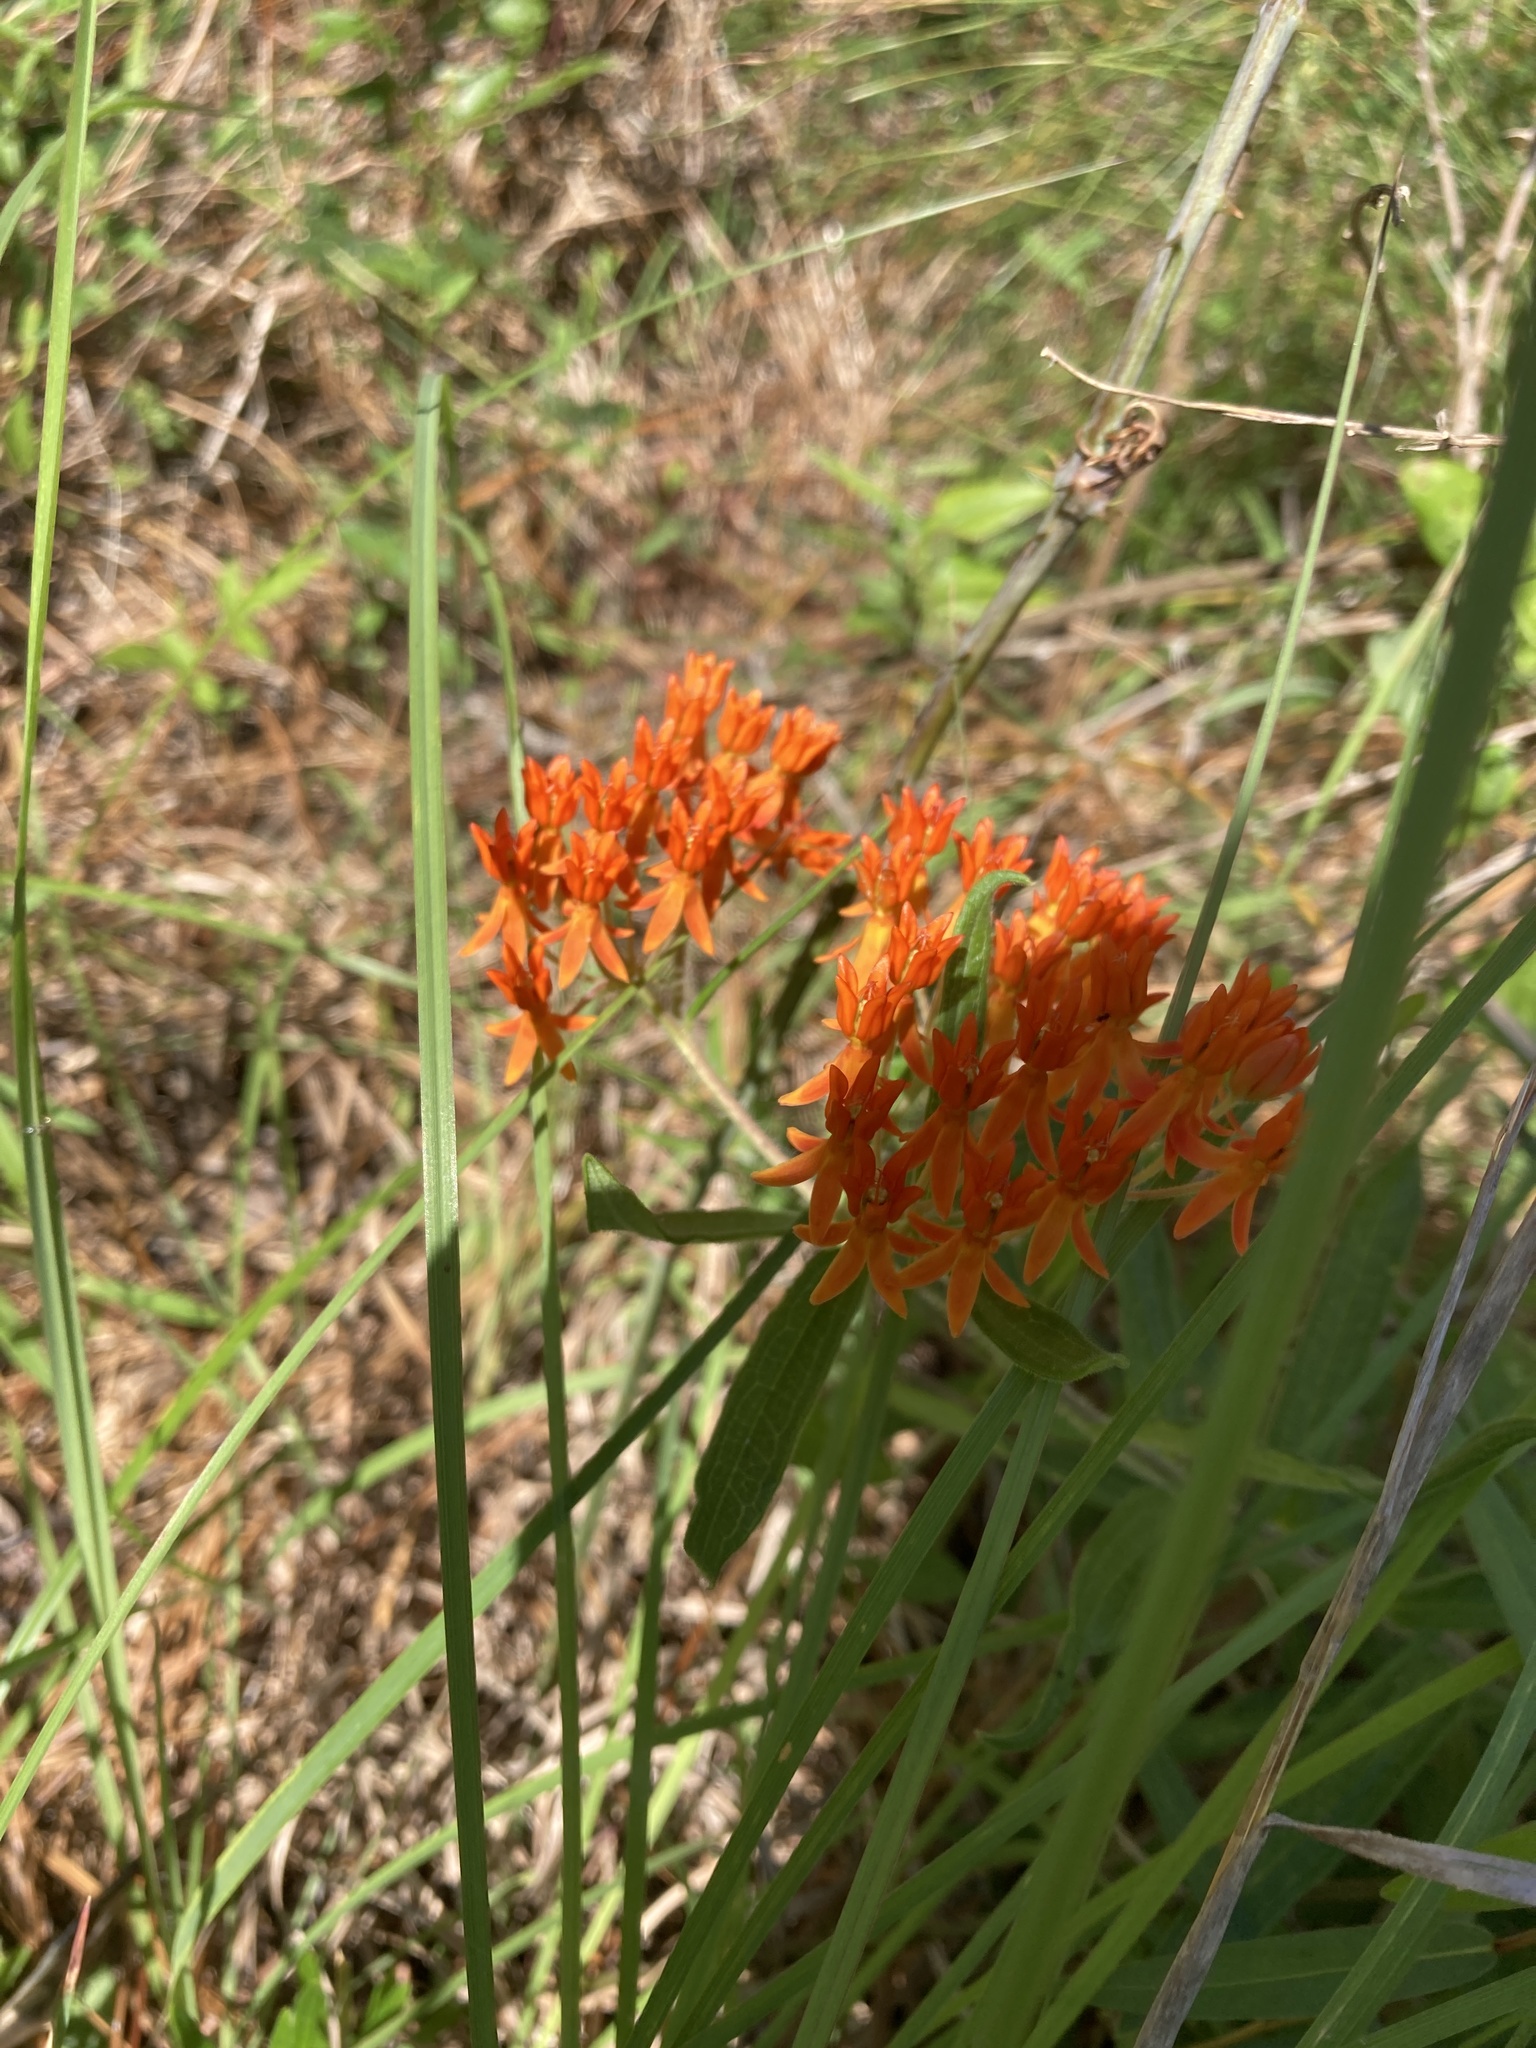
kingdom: Plantae
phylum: Tracheophyta
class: Magnoliopsida
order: Gentianales
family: Apocynaceae
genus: Asclepias
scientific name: Asclepias tuberosa
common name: Butterfly milkweed
